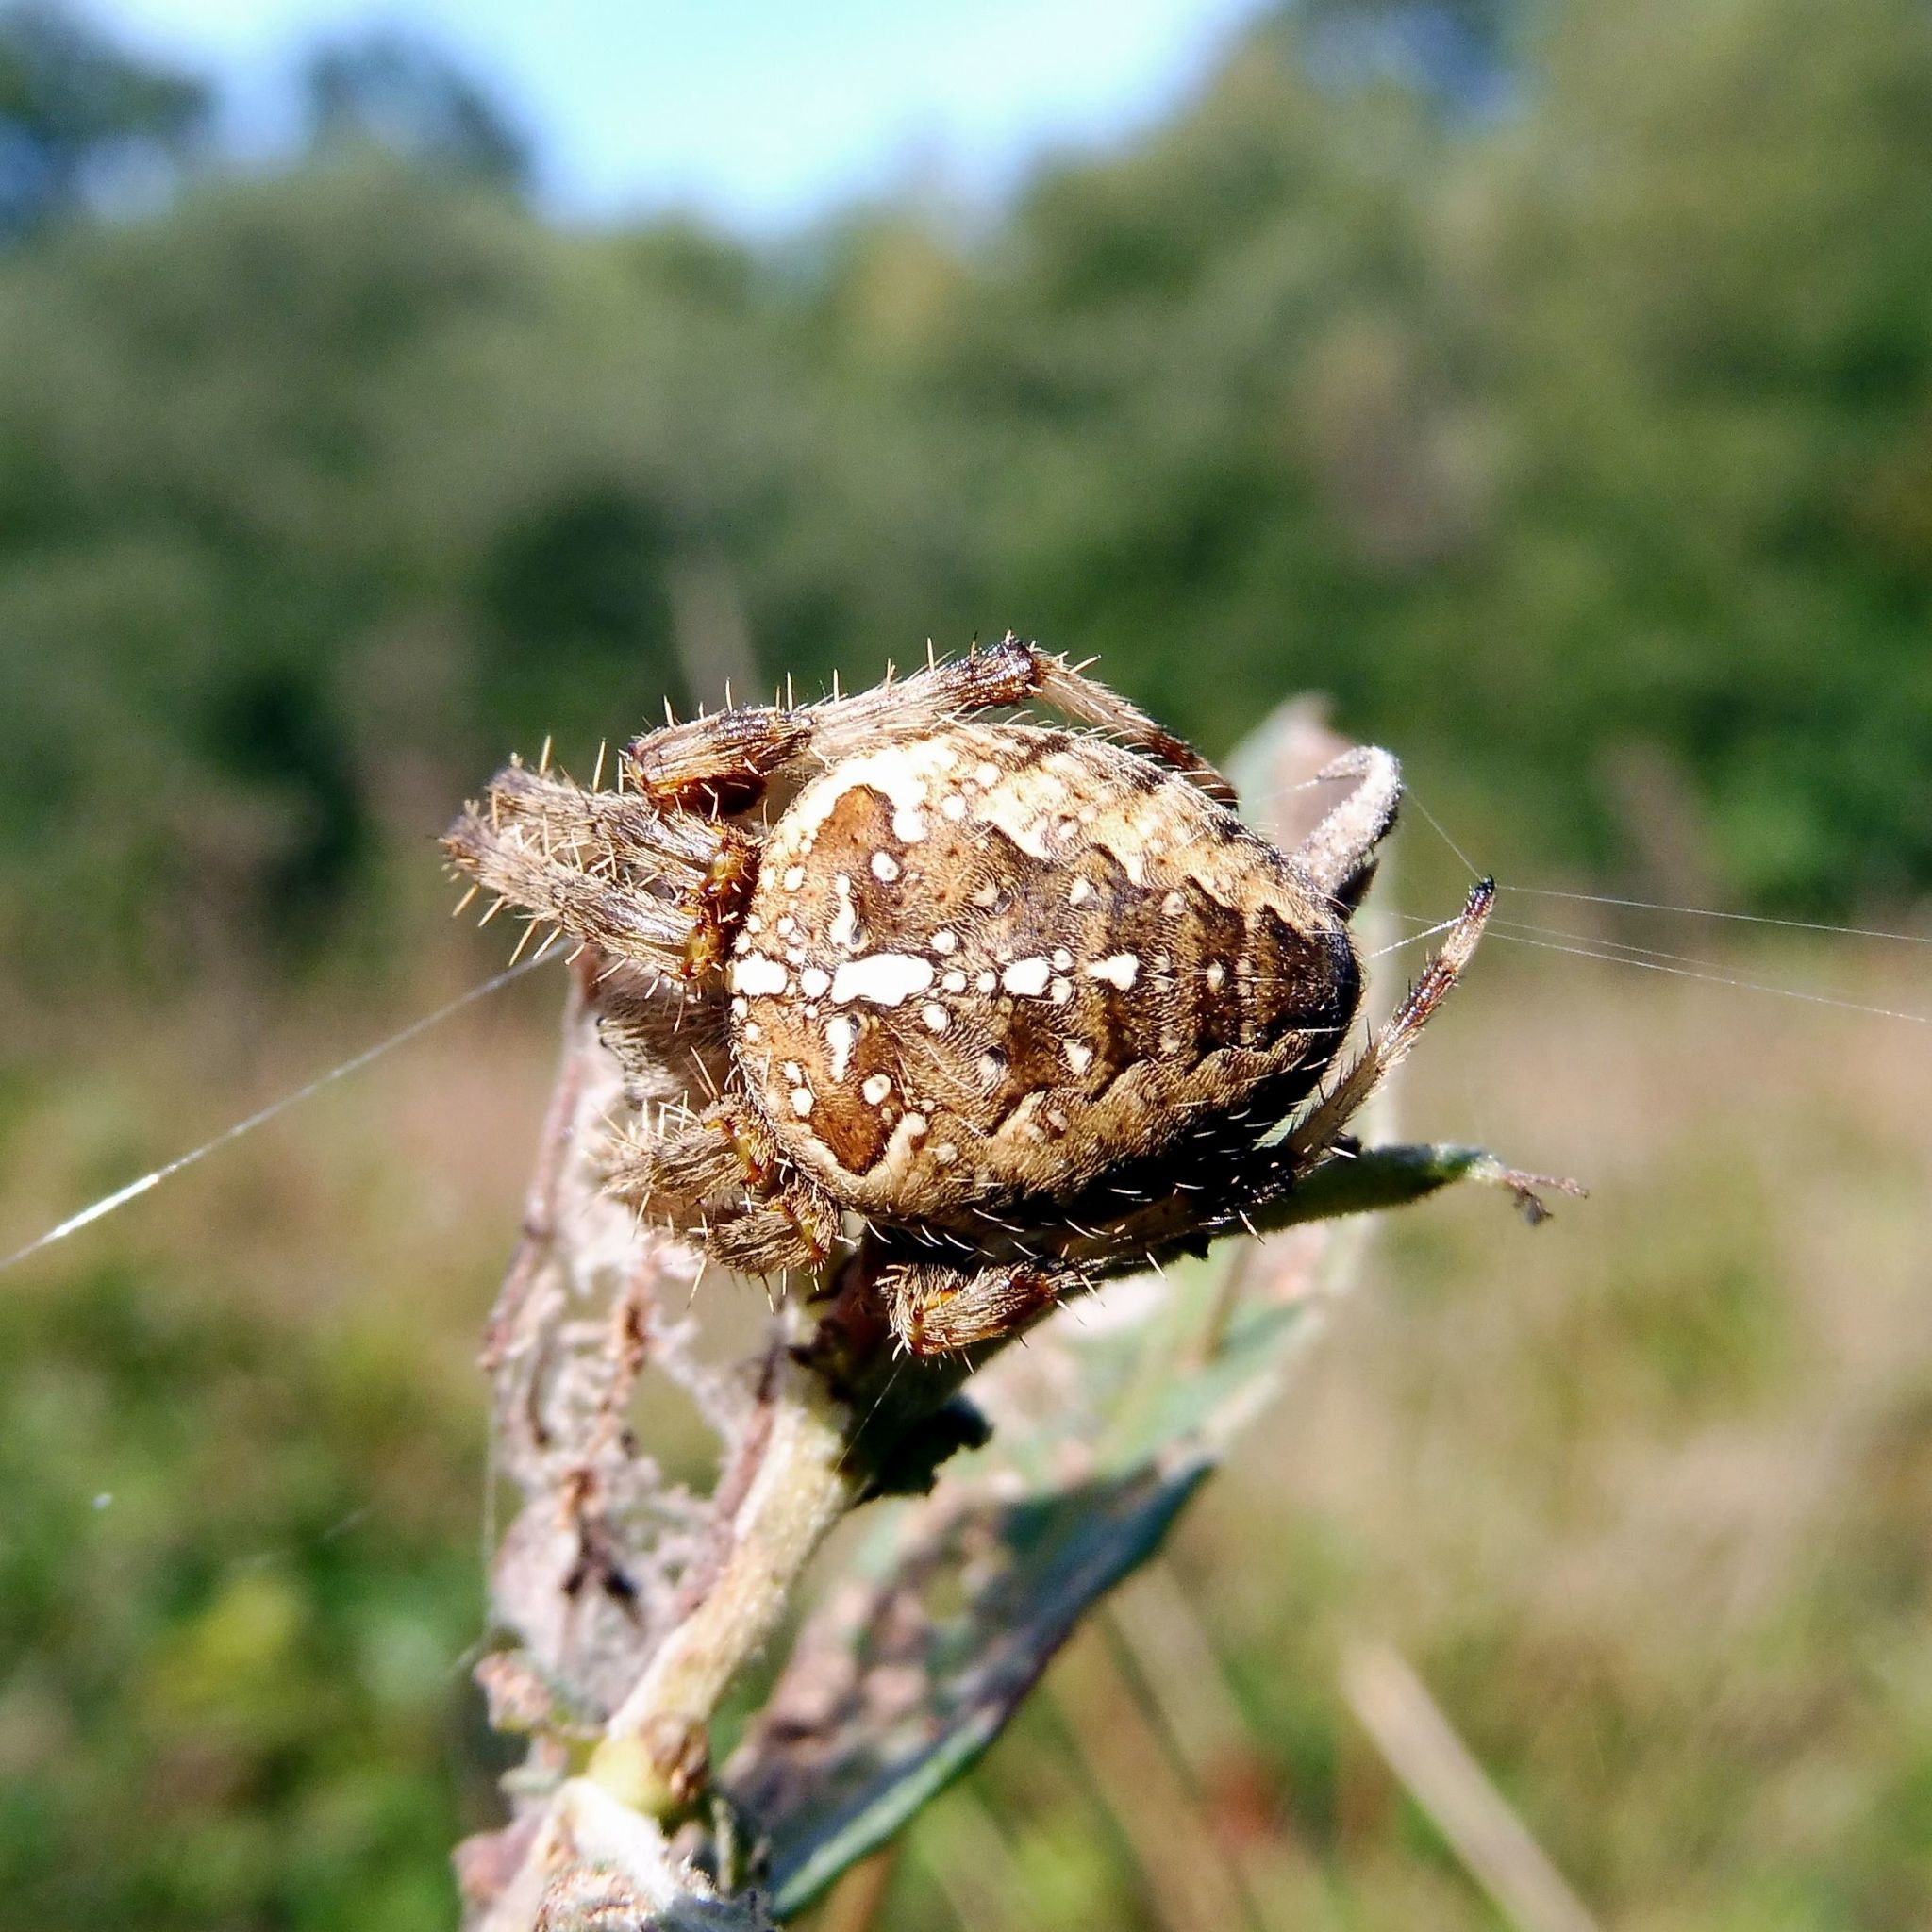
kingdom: Animalia
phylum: Arthropoda
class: Arachnida
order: Araneae
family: Araneidae
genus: Araneus
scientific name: Araneus diadematus
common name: Cross orbweaver
